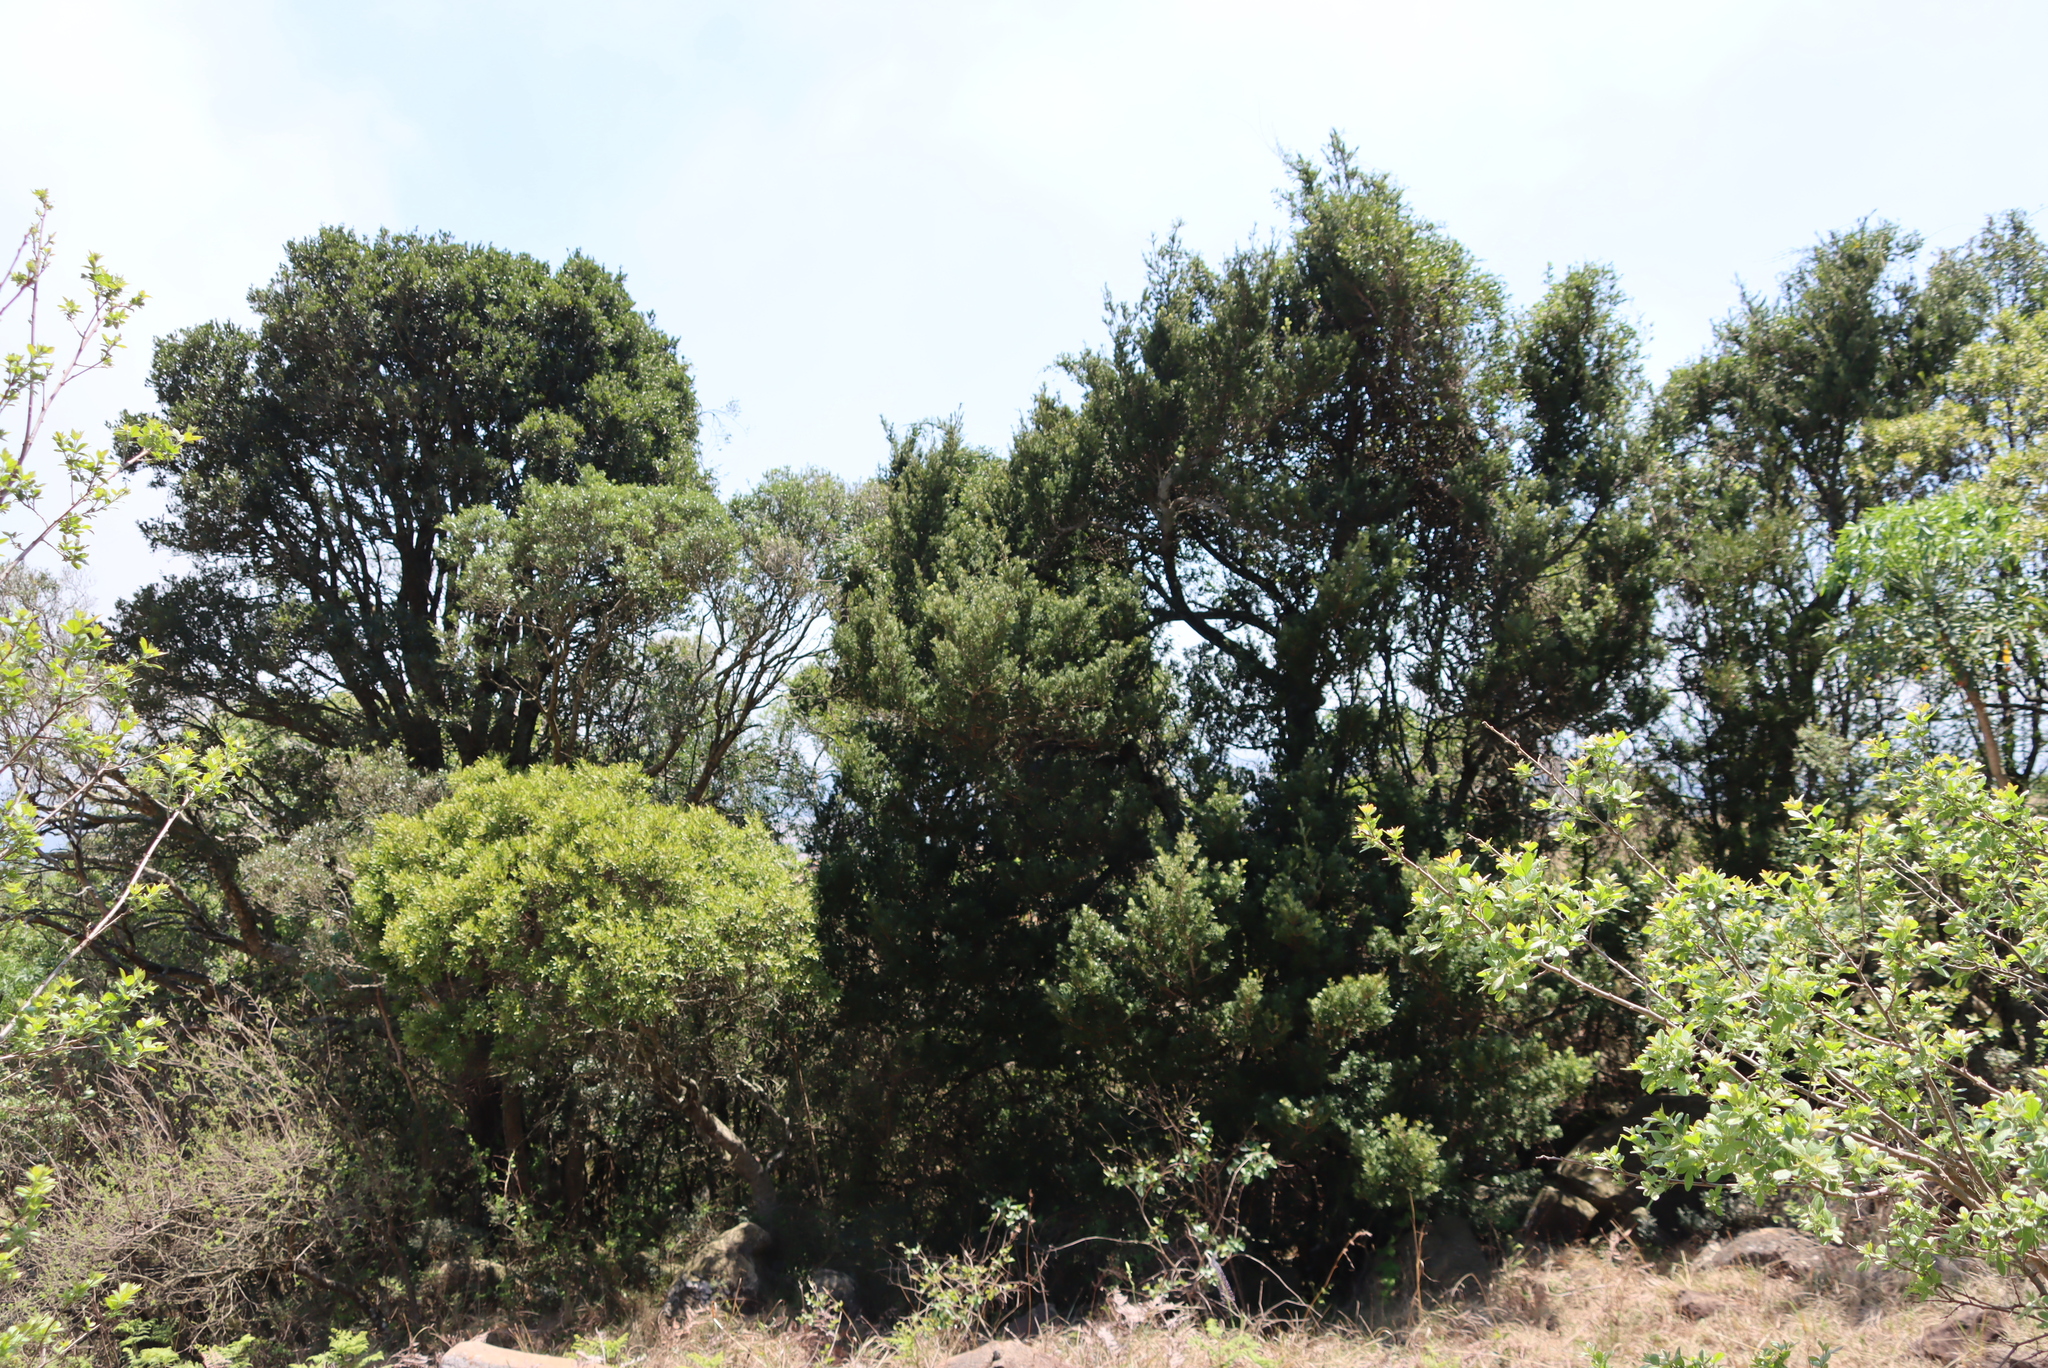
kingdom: Plantae
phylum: Tracheophyta
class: Pinopsida
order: Pinales
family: Podocarpaceae
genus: Podocarpus
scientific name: Podocarpus latifolius
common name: True yellowwood
